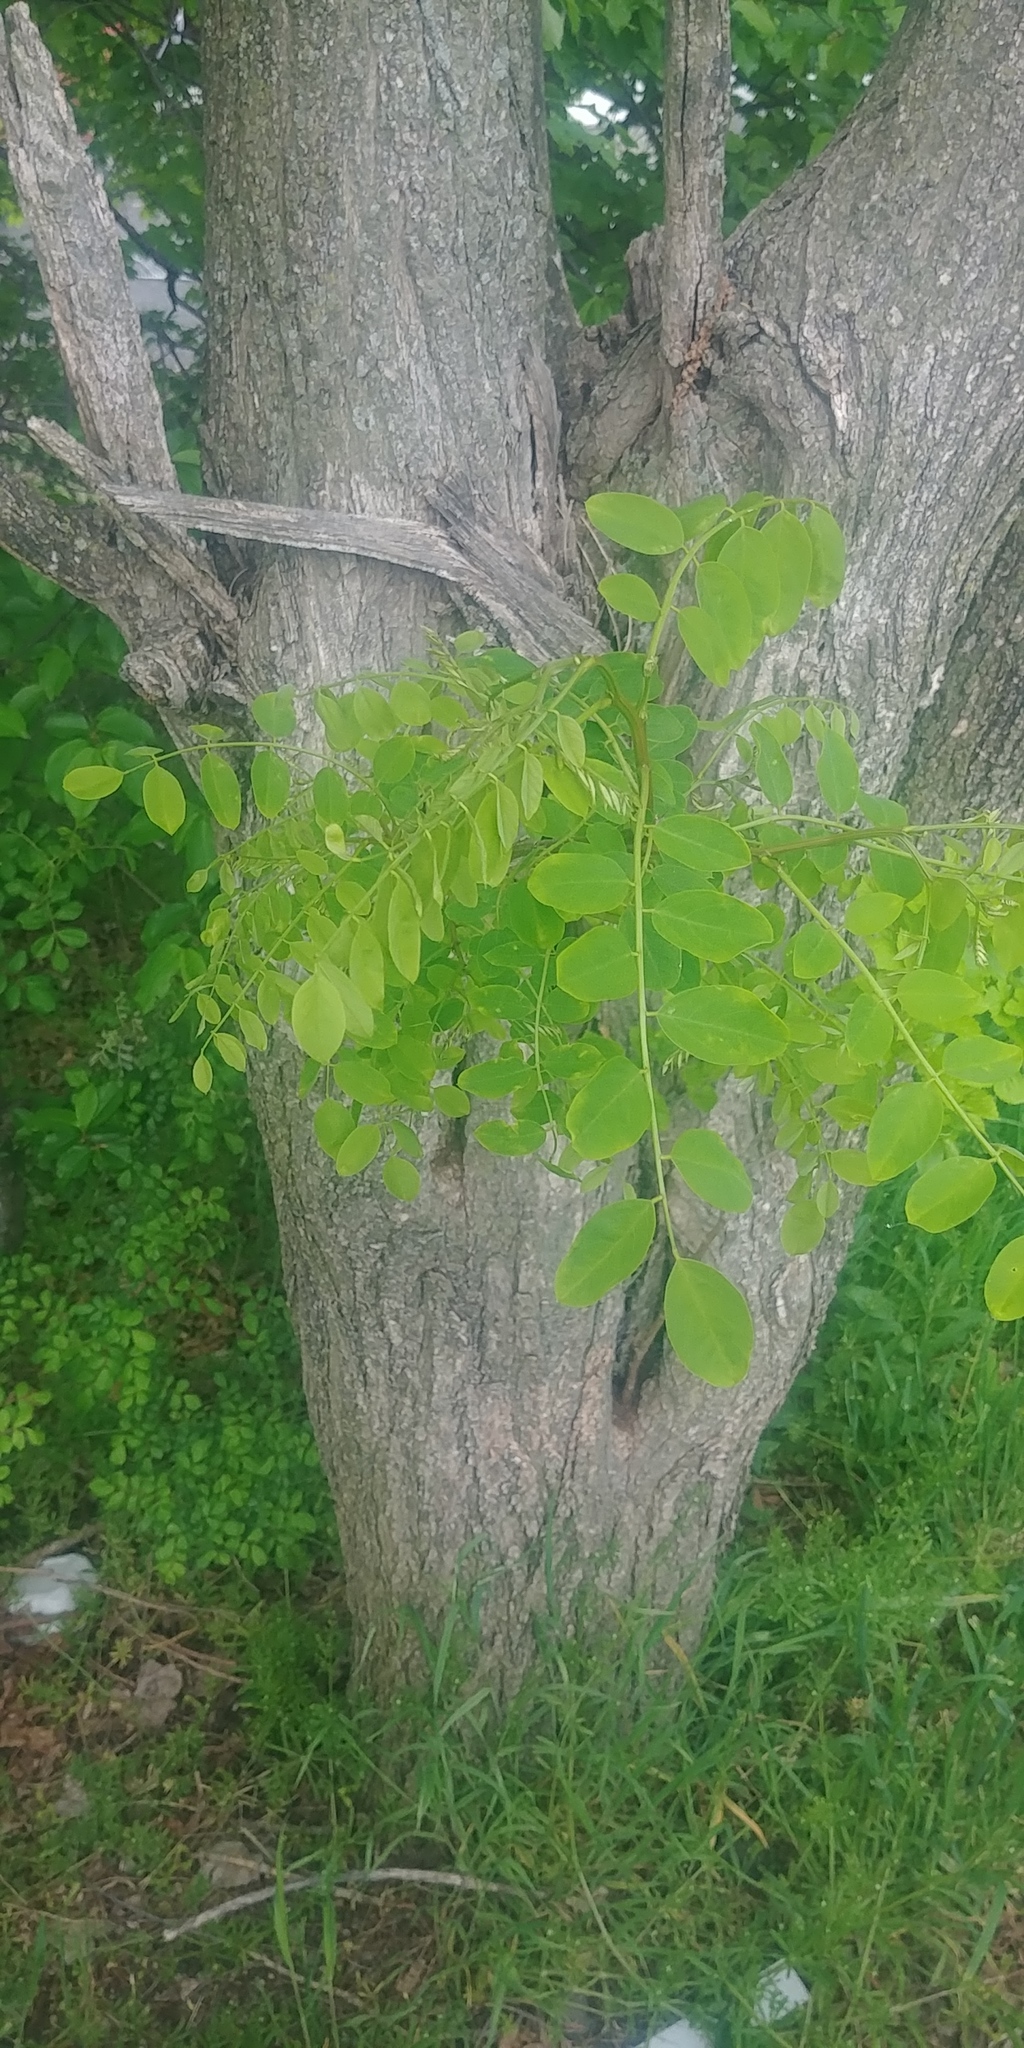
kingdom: Plantae
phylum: Tracheophyta
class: Magnoliopsida
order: Fabales
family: Fabaceae
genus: Robinia
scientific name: Robinia pseudoacacia
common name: Black locust
